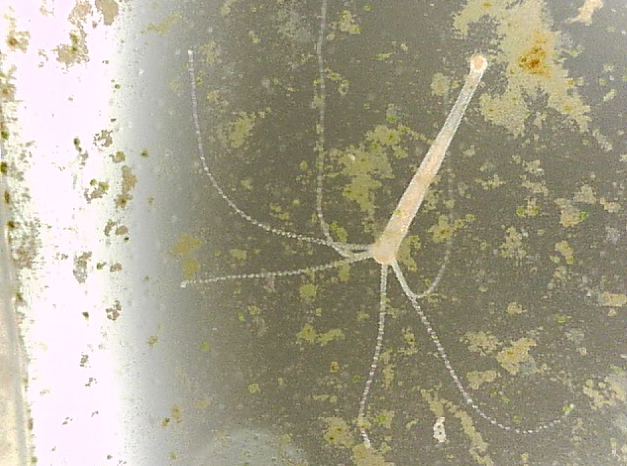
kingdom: Animalia
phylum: Cnidaria
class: Hydrozoa
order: Anthoathecata
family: Hydridae
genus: Hydra
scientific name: Hydra oligactis
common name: Brown hydra
